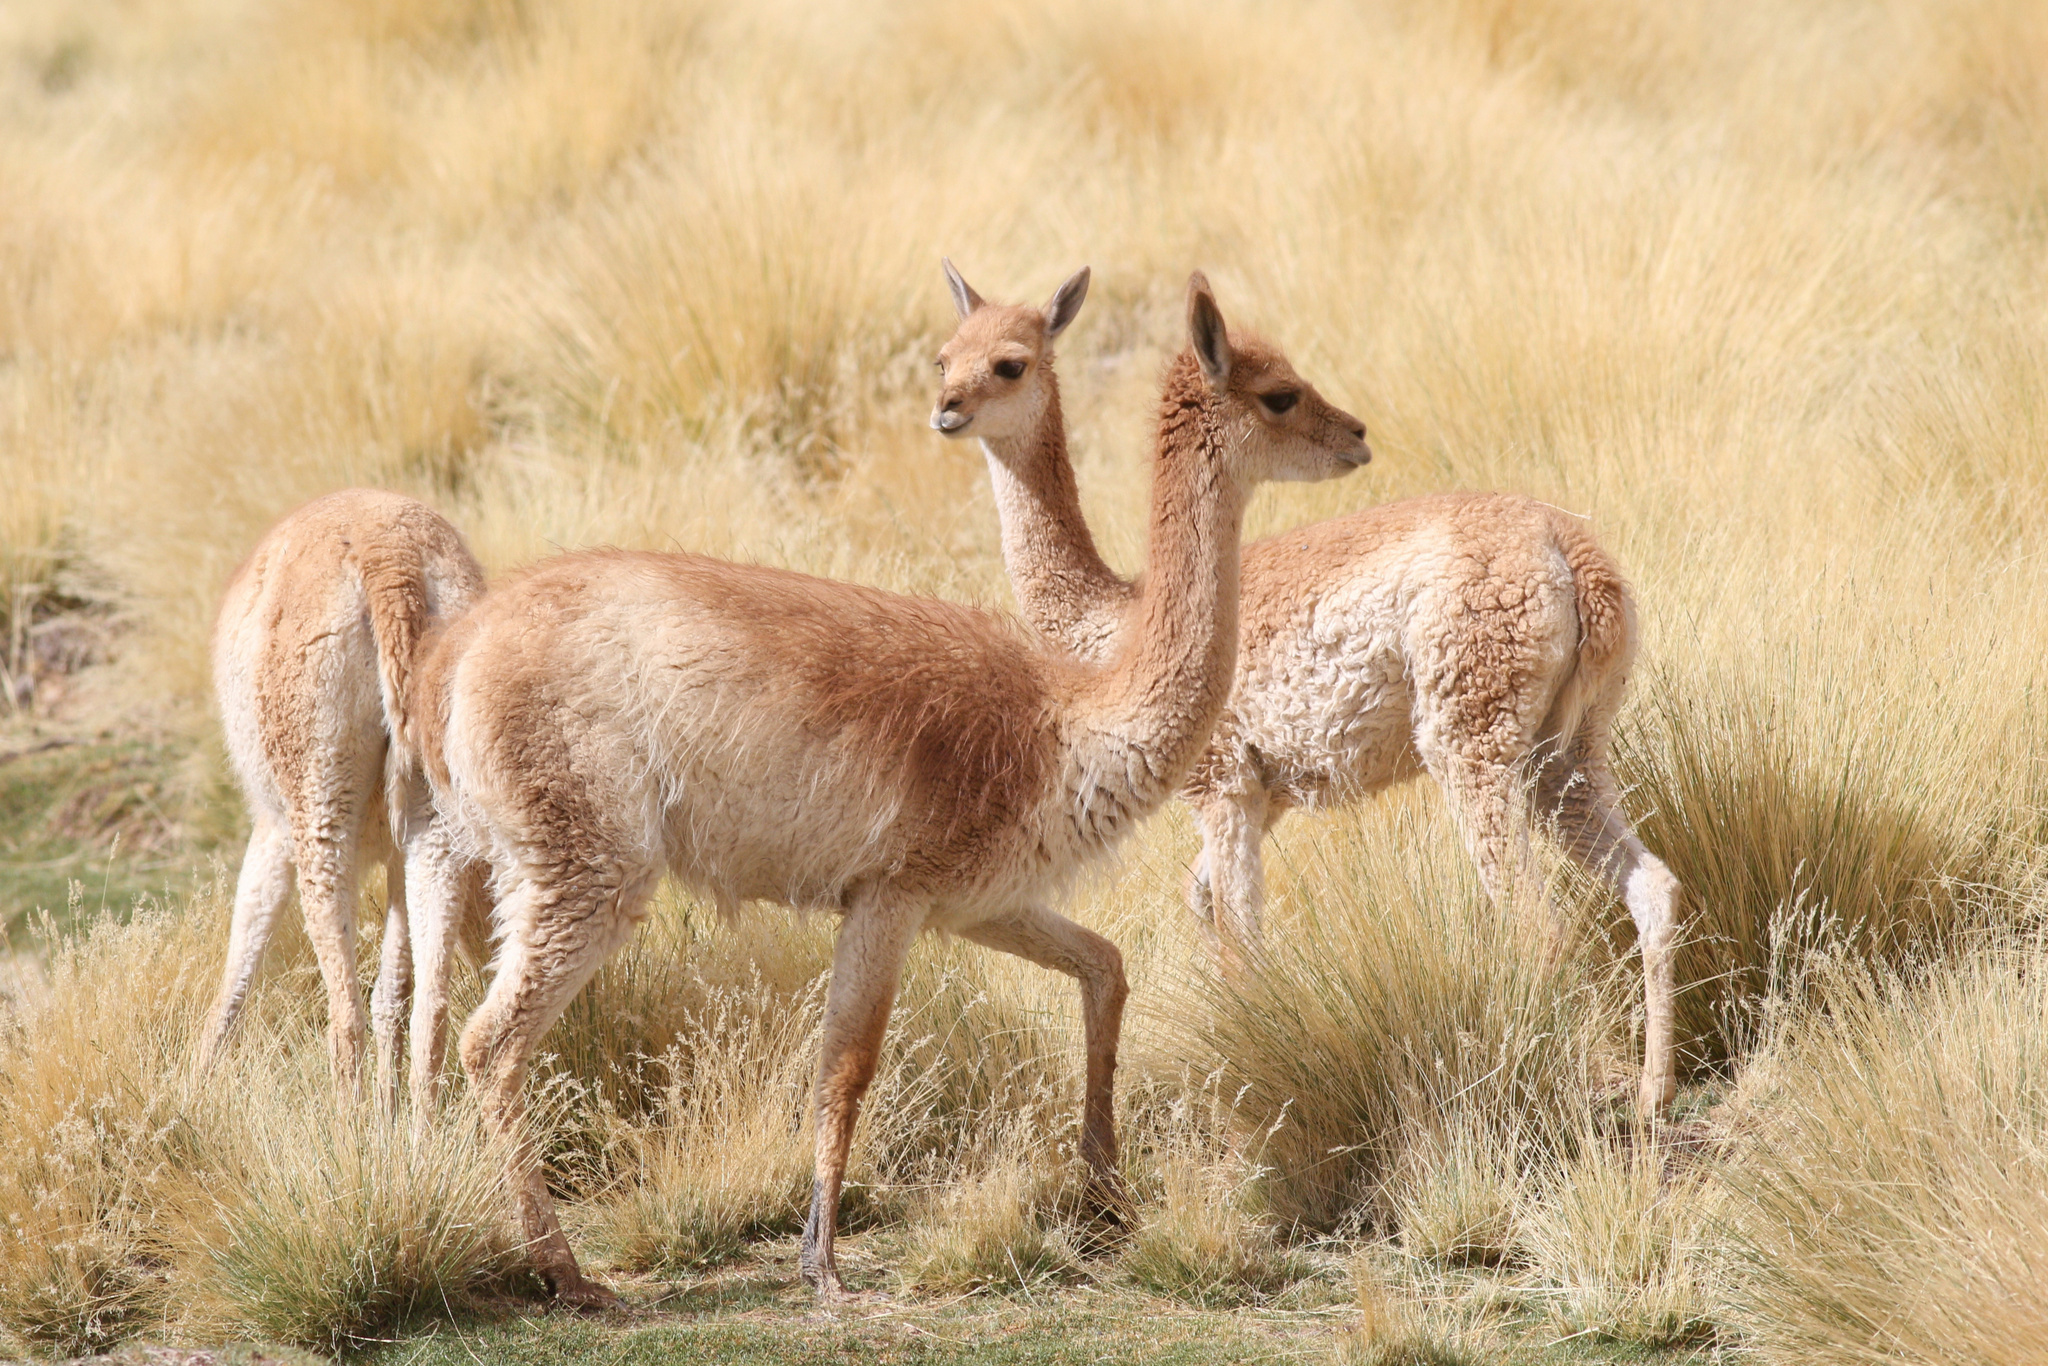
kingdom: Animalia
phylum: Chordata
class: Mammalia
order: Artiodactyla
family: Camelidae
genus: Vicugna
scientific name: Vicugna vicugna
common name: Vicugna
